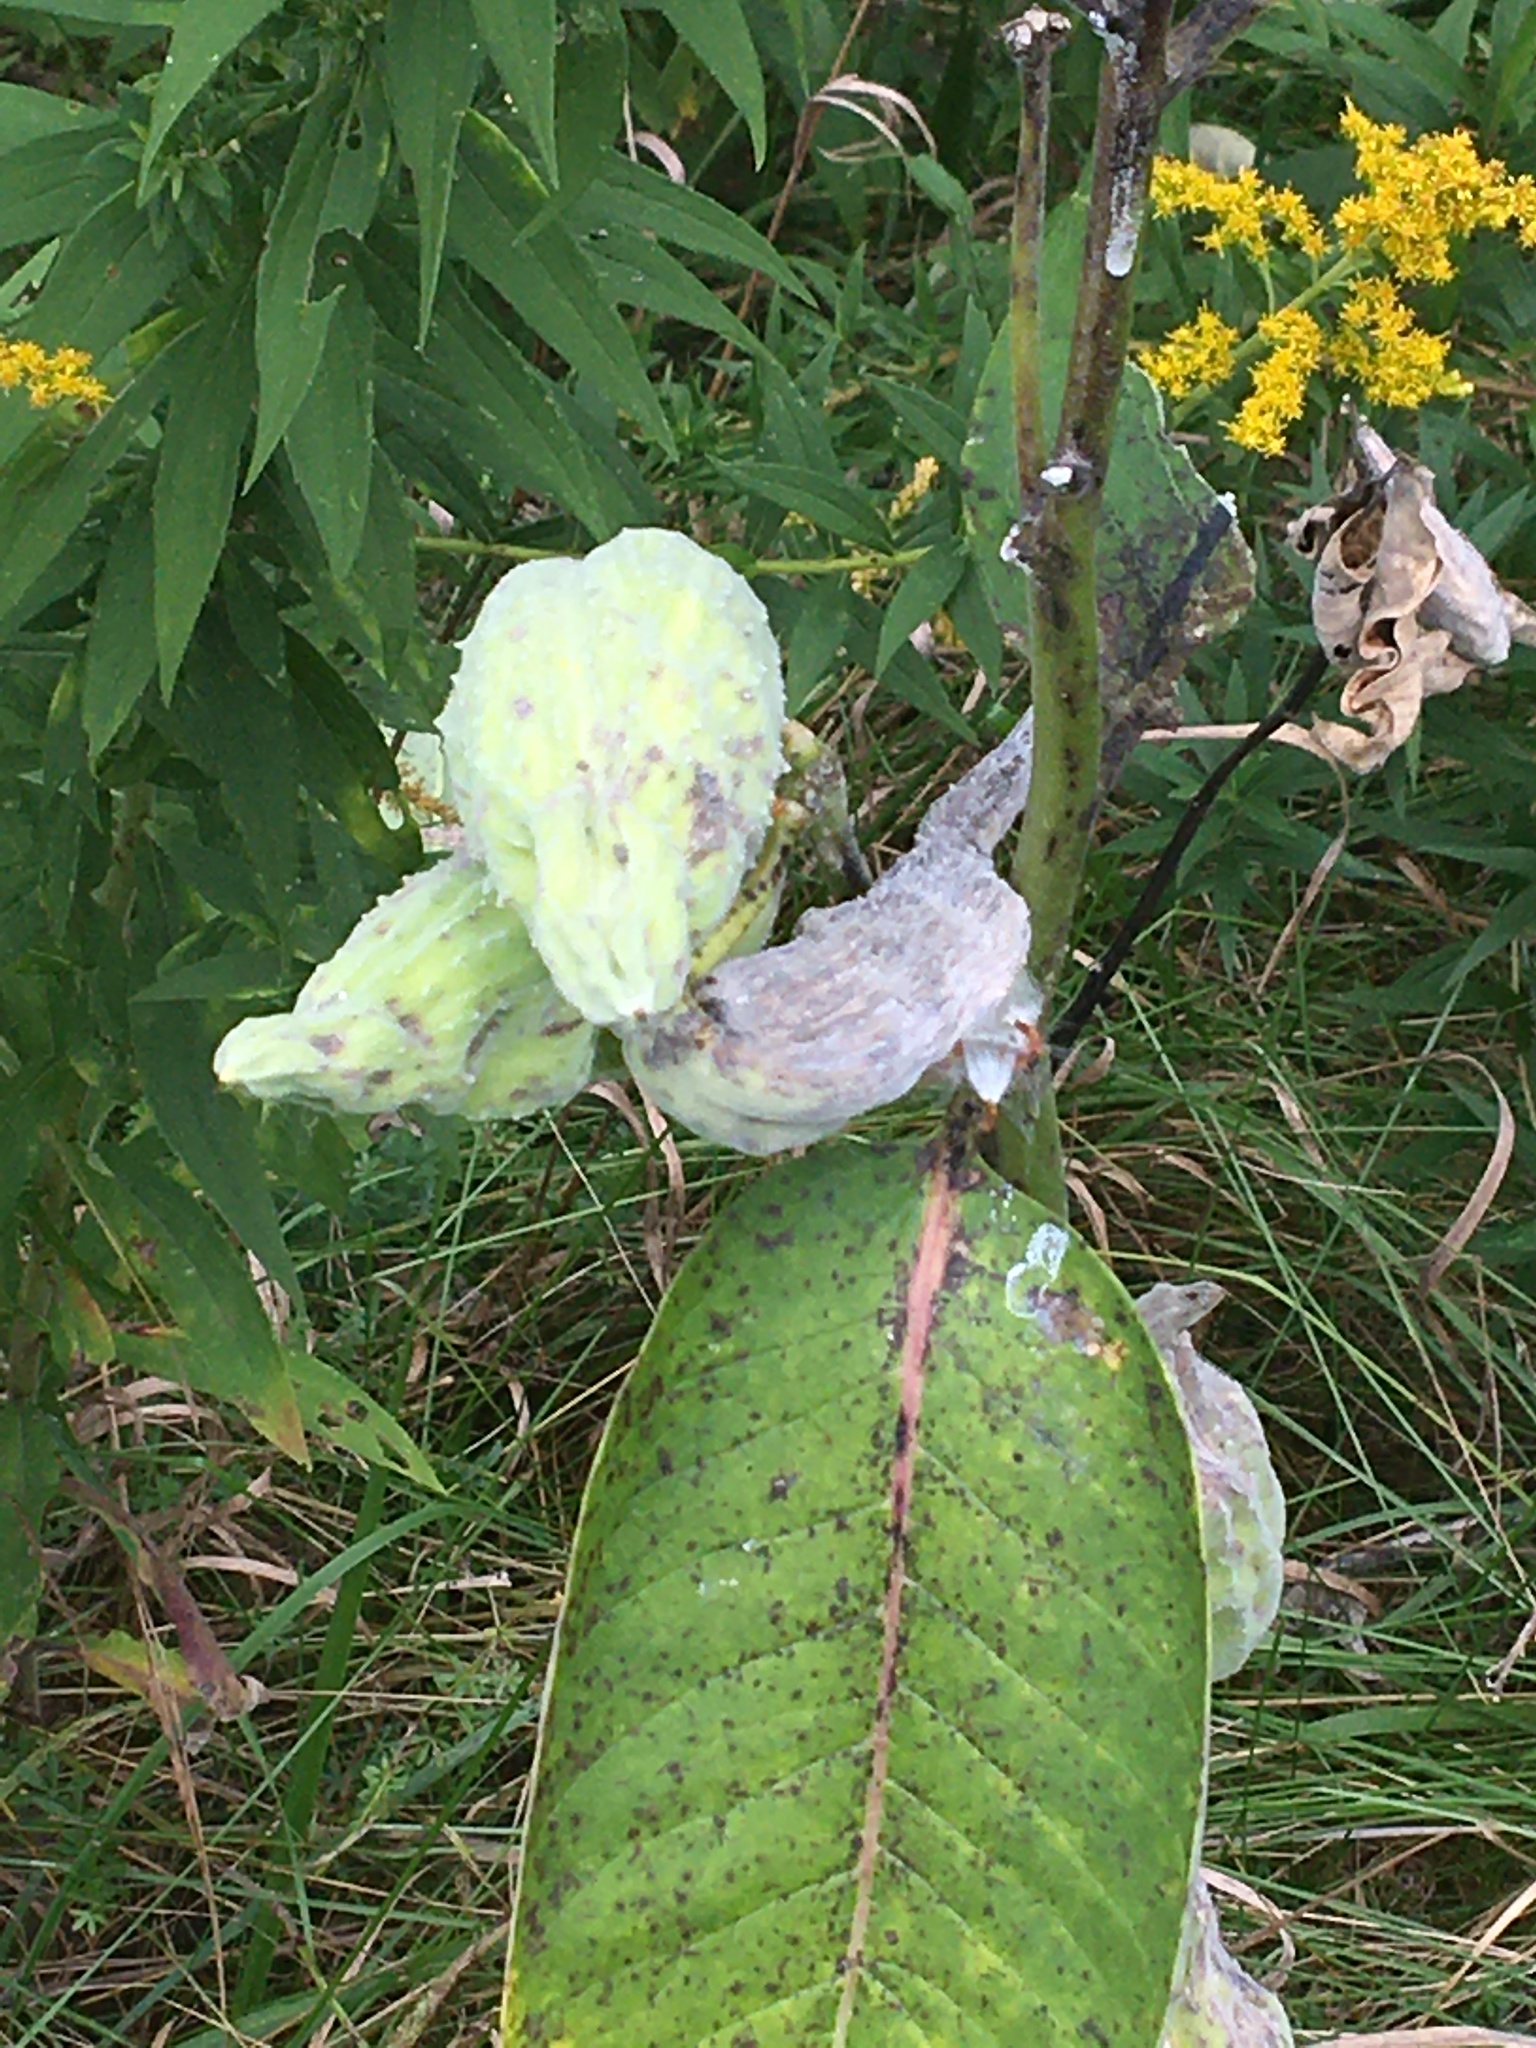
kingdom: Plantae
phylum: Tracheophyta
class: Magnoliopsida
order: Gentianales
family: Apocynaceae
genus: Asclepias
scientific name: Asclepias syriaca
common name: Common milkweed
